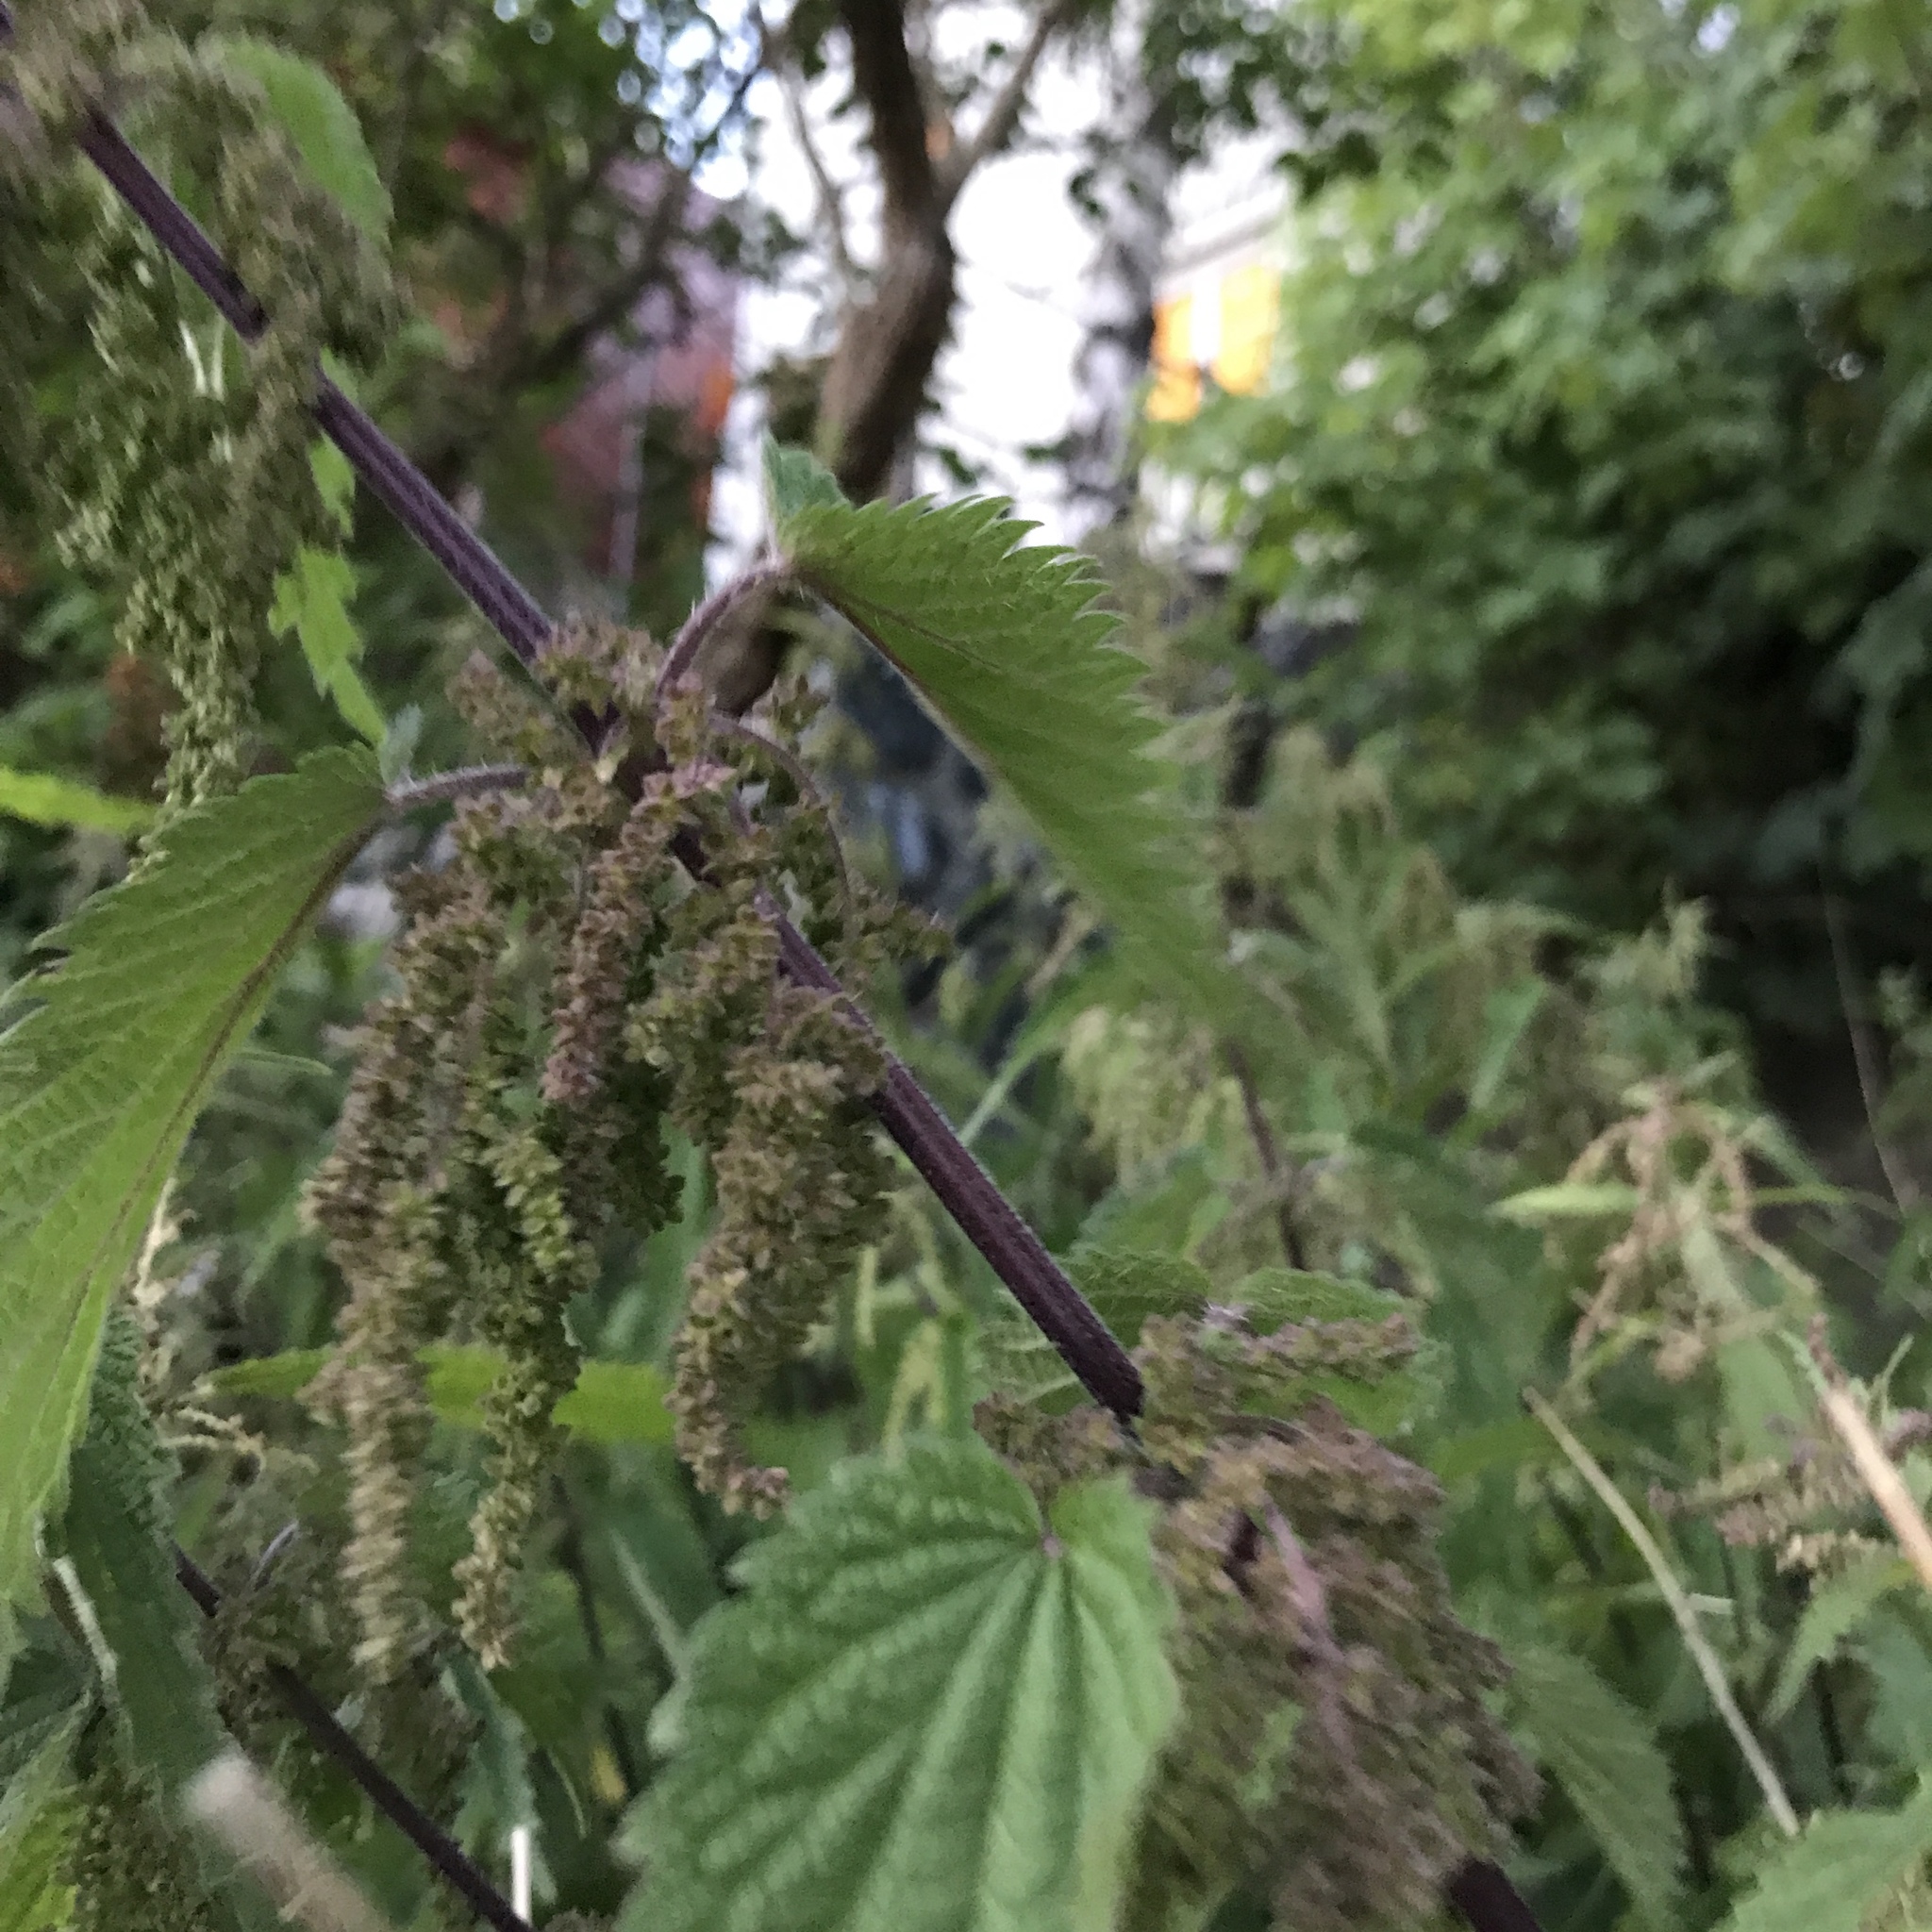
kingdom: Plantae
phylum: Tracheophyta
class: Magnoliopsida
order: Rosales
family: Urticaceae
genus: Urtica
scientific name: Urtica dioica
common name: Common nettle
